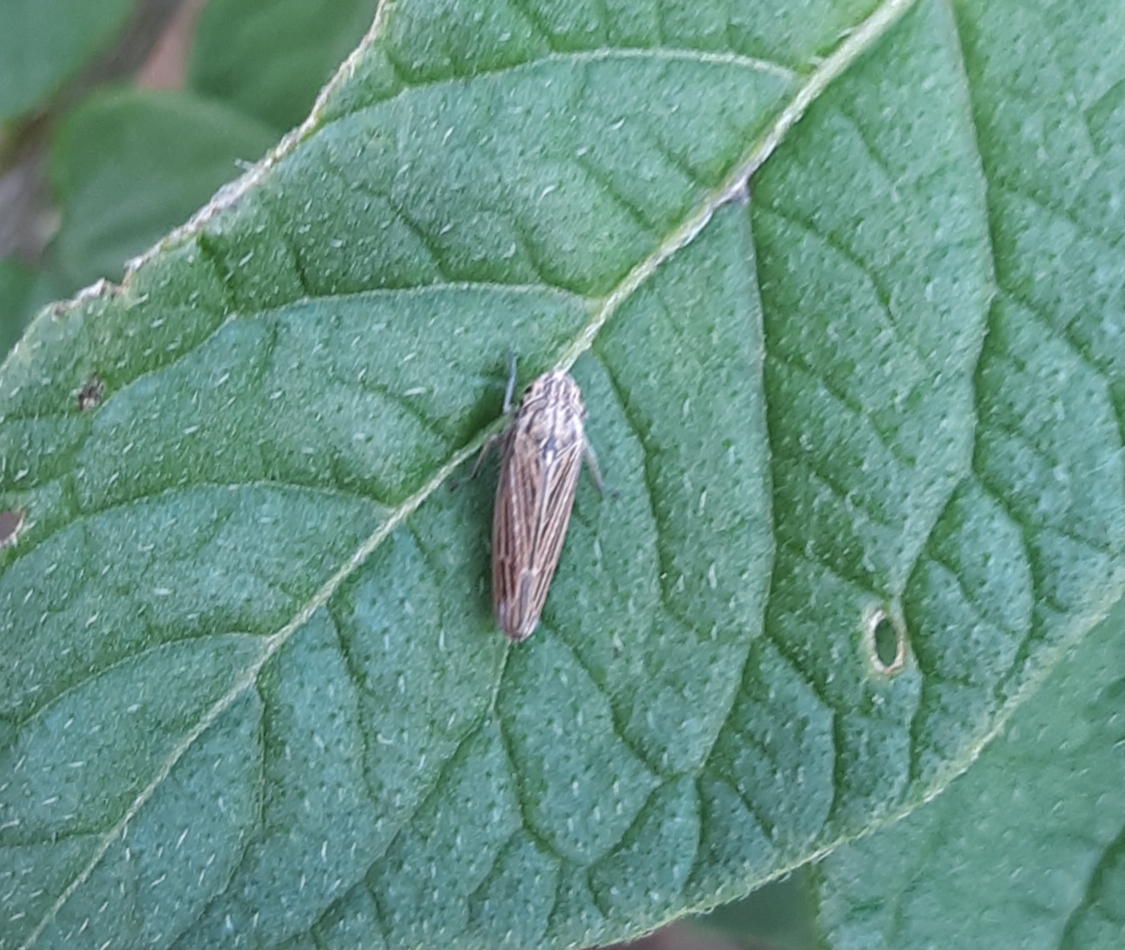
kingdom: Animalia
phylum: Arthropoda
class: Insecta
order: Hemiptera
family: Cicadellidae
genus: Neokolla
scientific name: Neokolla hieroglyphica
